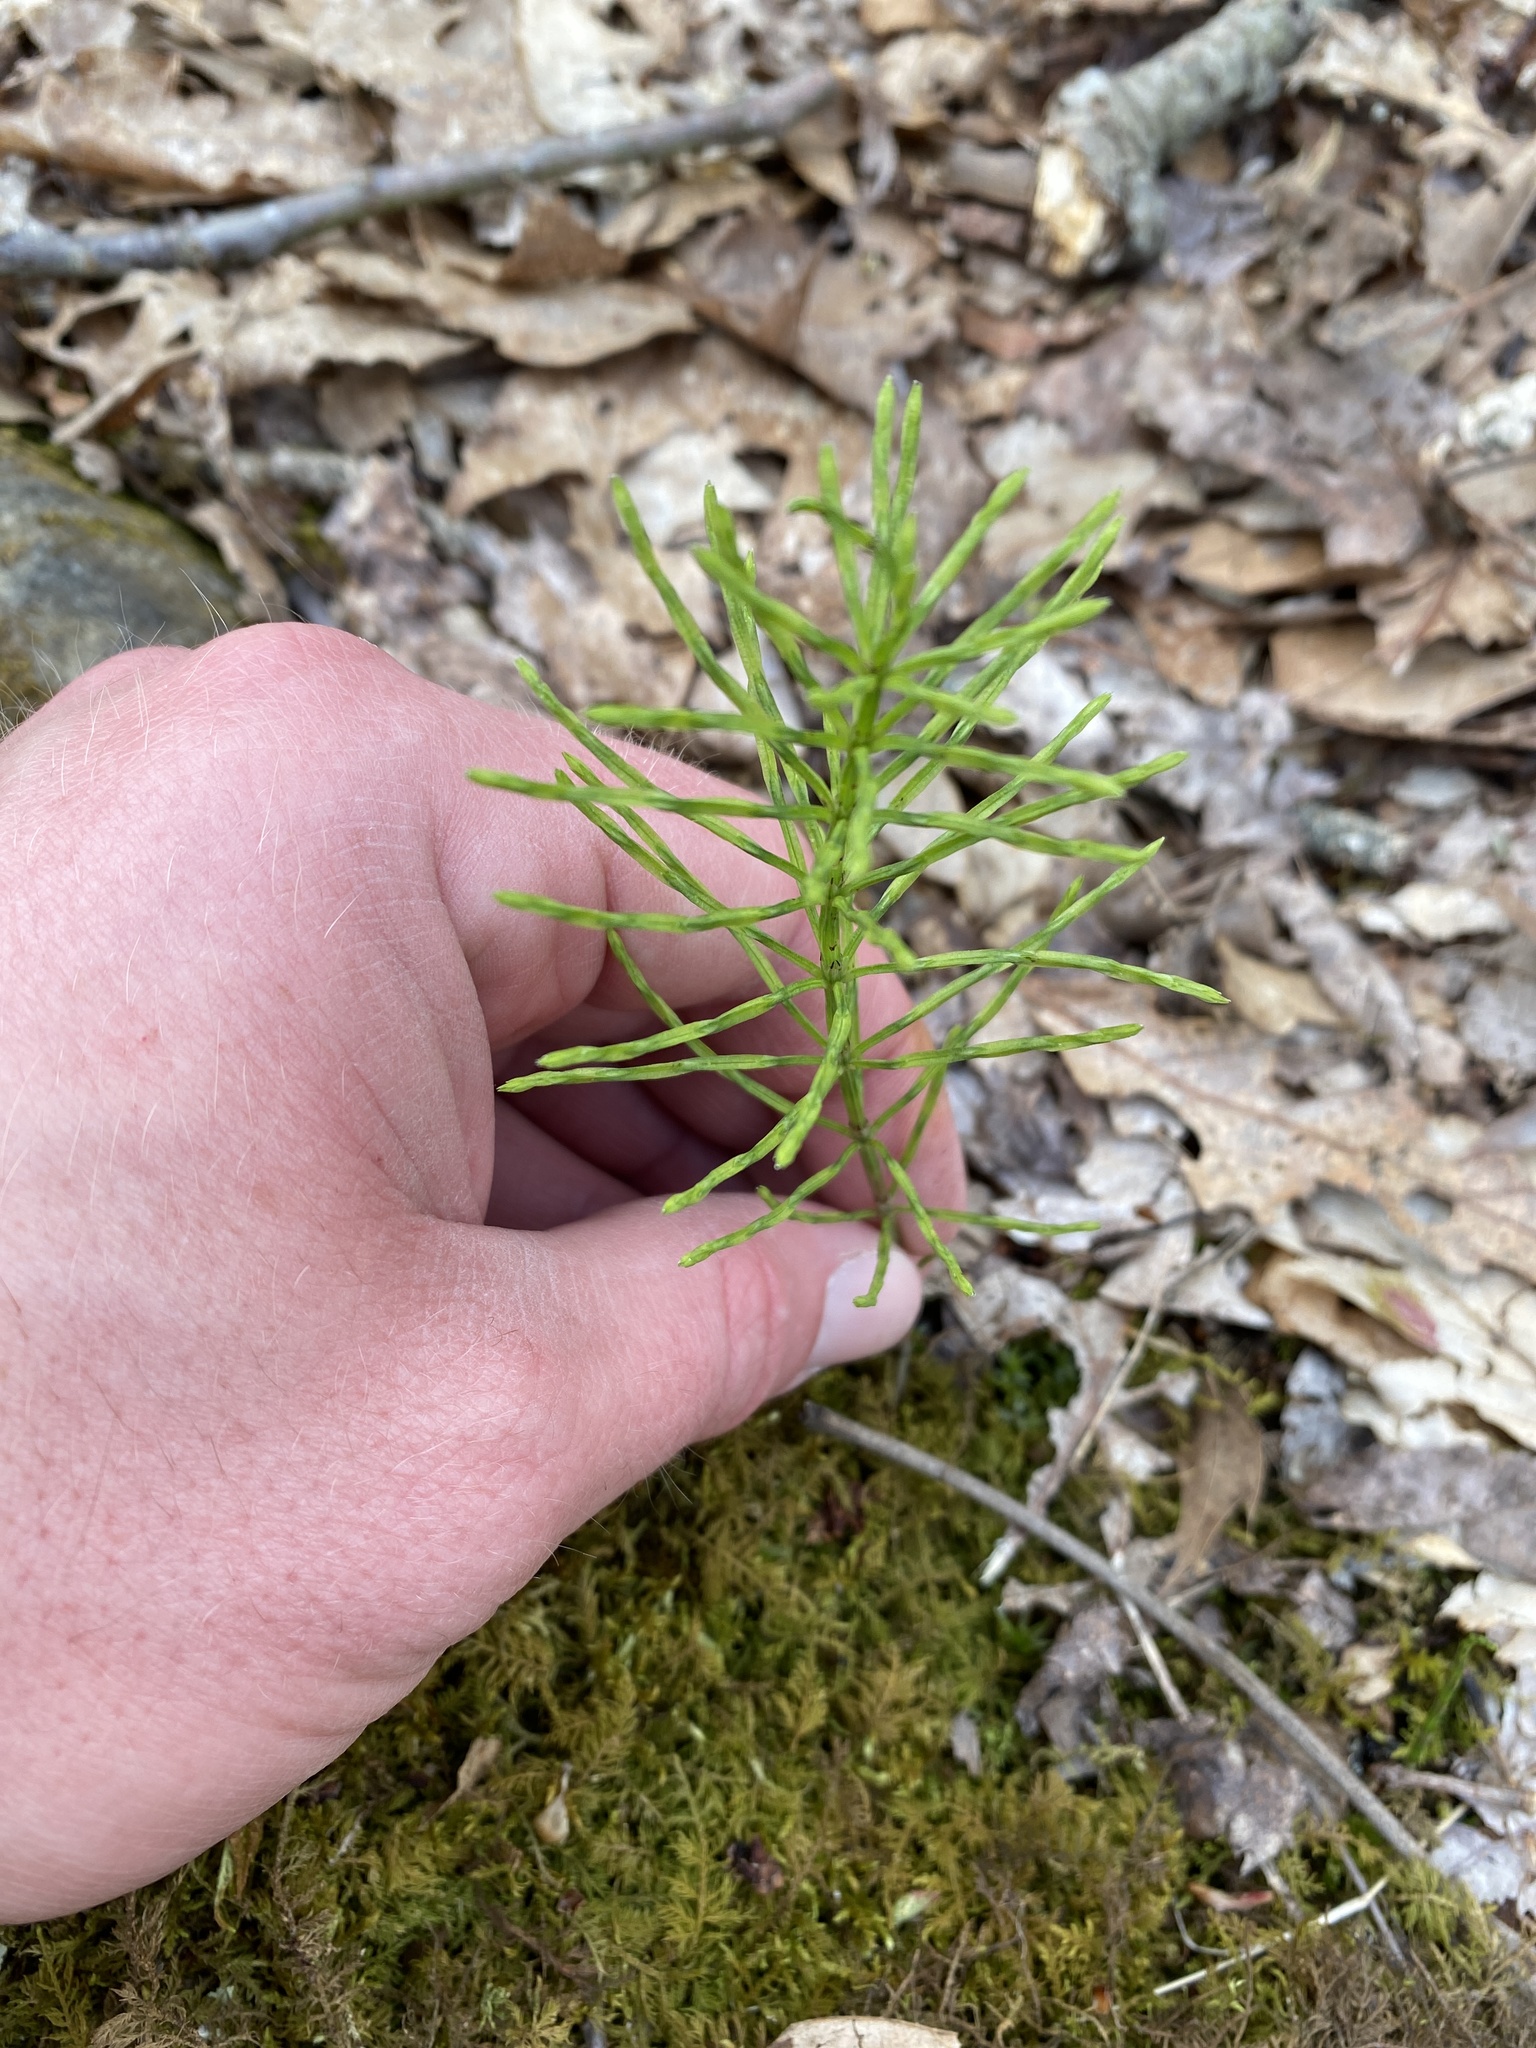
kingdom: Plantae
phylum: Tracheophyta
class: Polypodiopsida
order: Equisetales
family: Equisetaceae
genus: Equisetum
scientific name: Equisetum arvense
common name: Field horsetail
